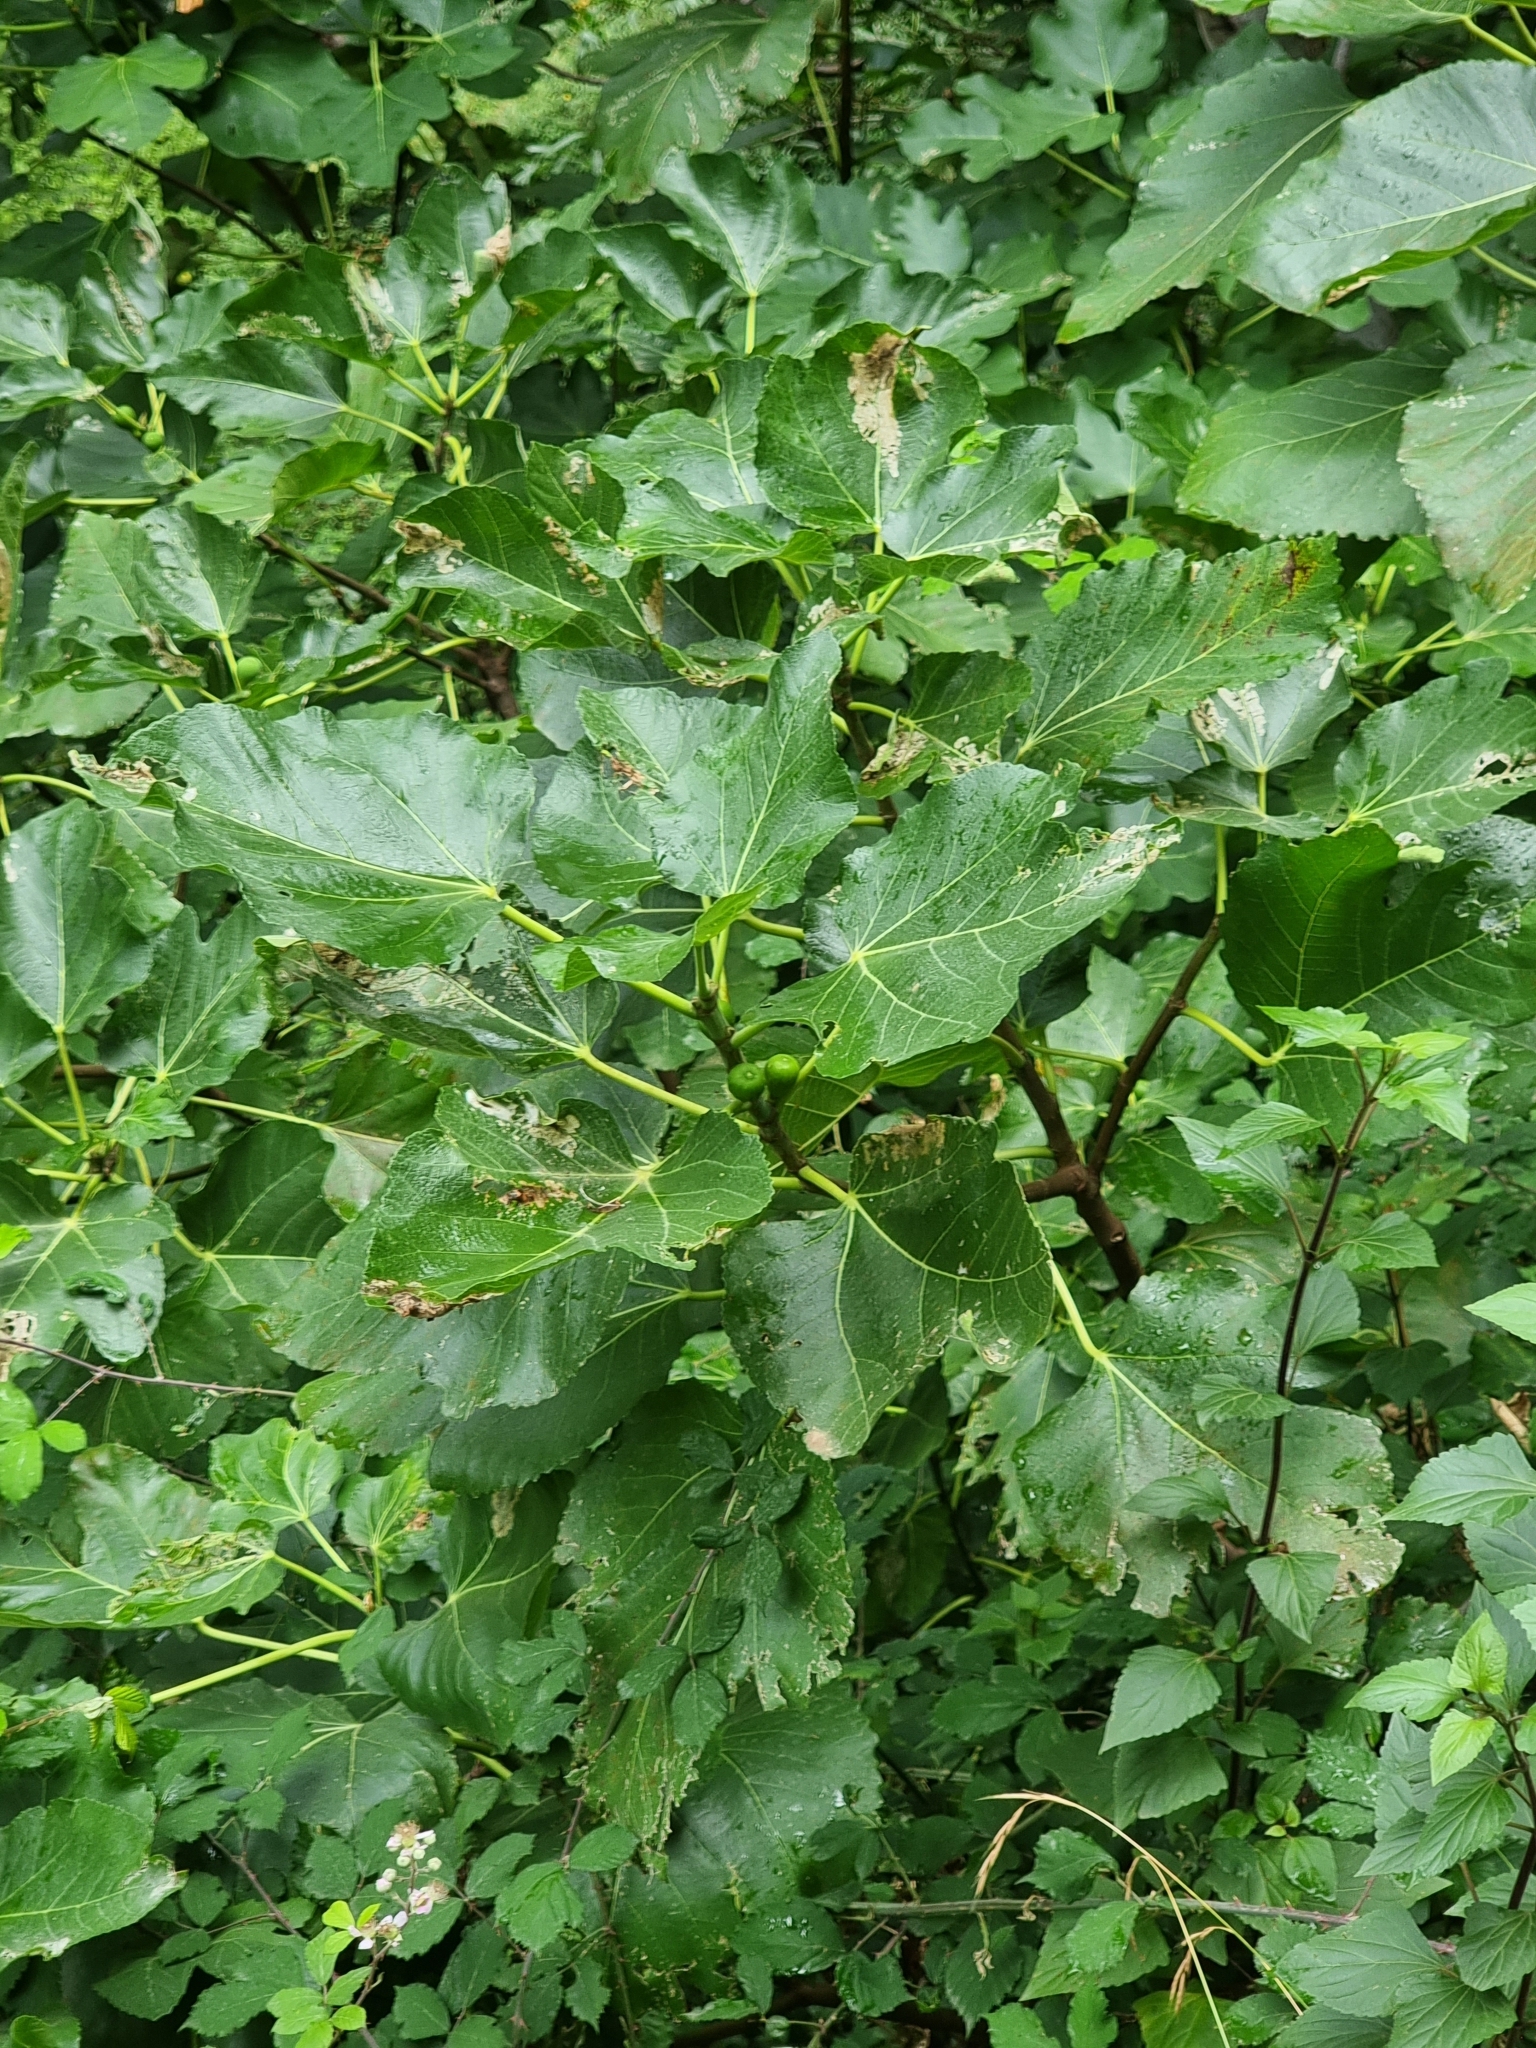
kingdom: Plantae
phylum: Tracheophyta
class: Magnoliopsida
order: Rosales
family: Moraceae
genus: Ficus
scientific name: Ficus carica
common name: Fig
